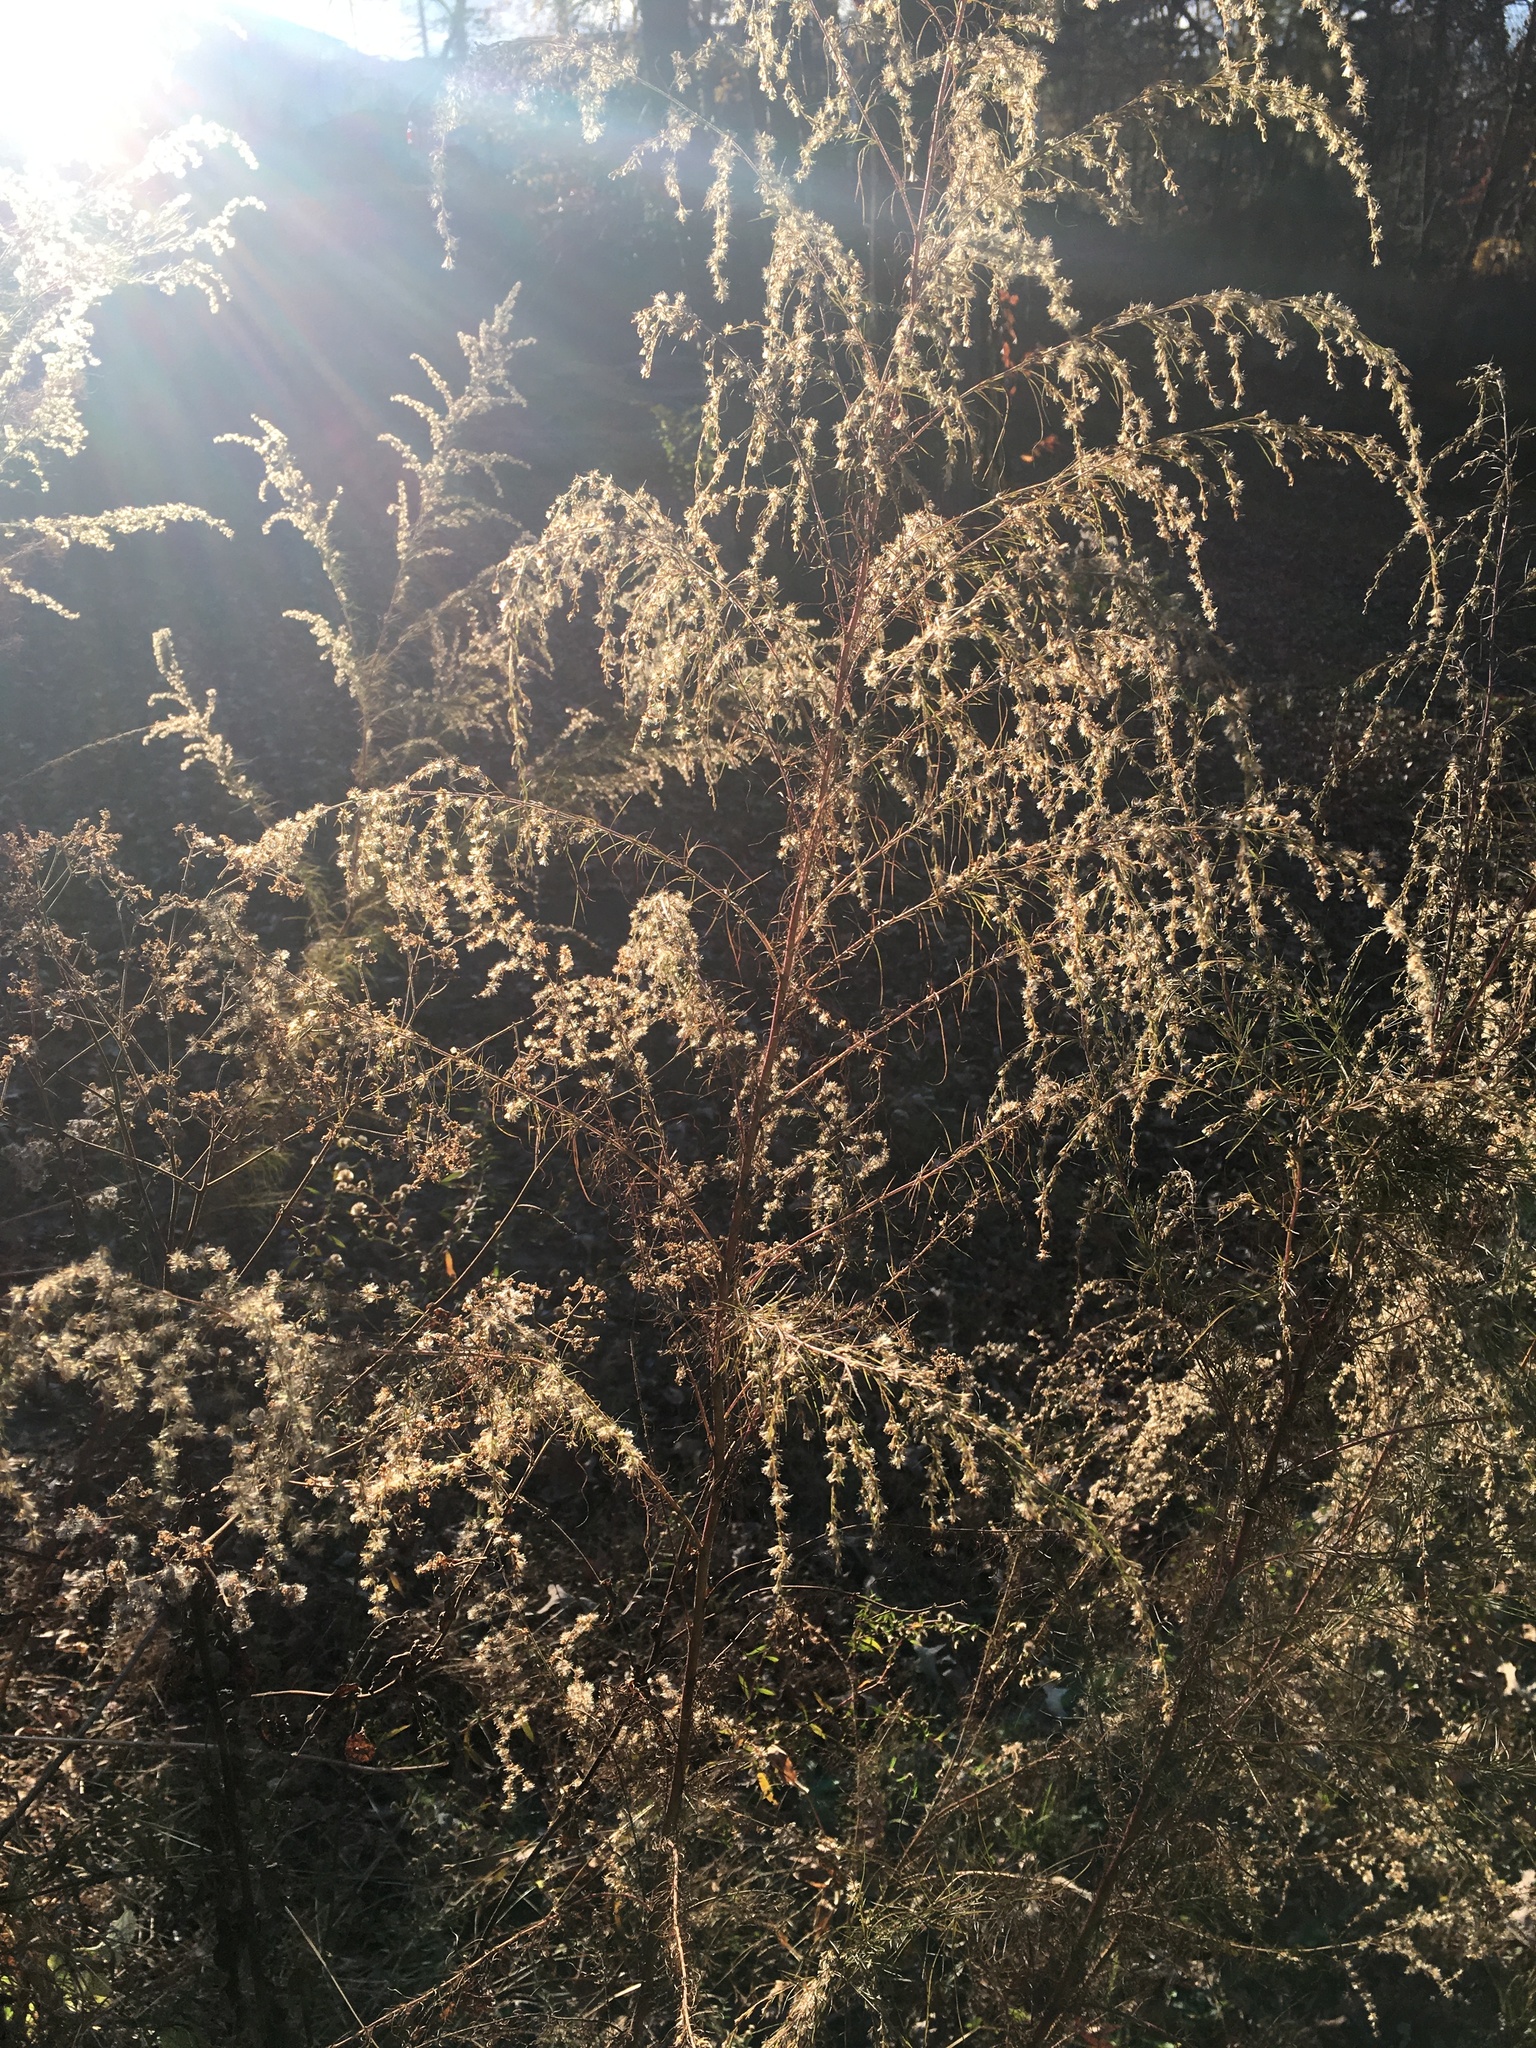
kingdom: Plantae
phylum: Tracheophyta
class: Magnoliopsida
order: Asterales
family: Asteraceae
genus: Eupatorium
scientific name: Eupatorium capillifolium
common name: Dog-fennel
